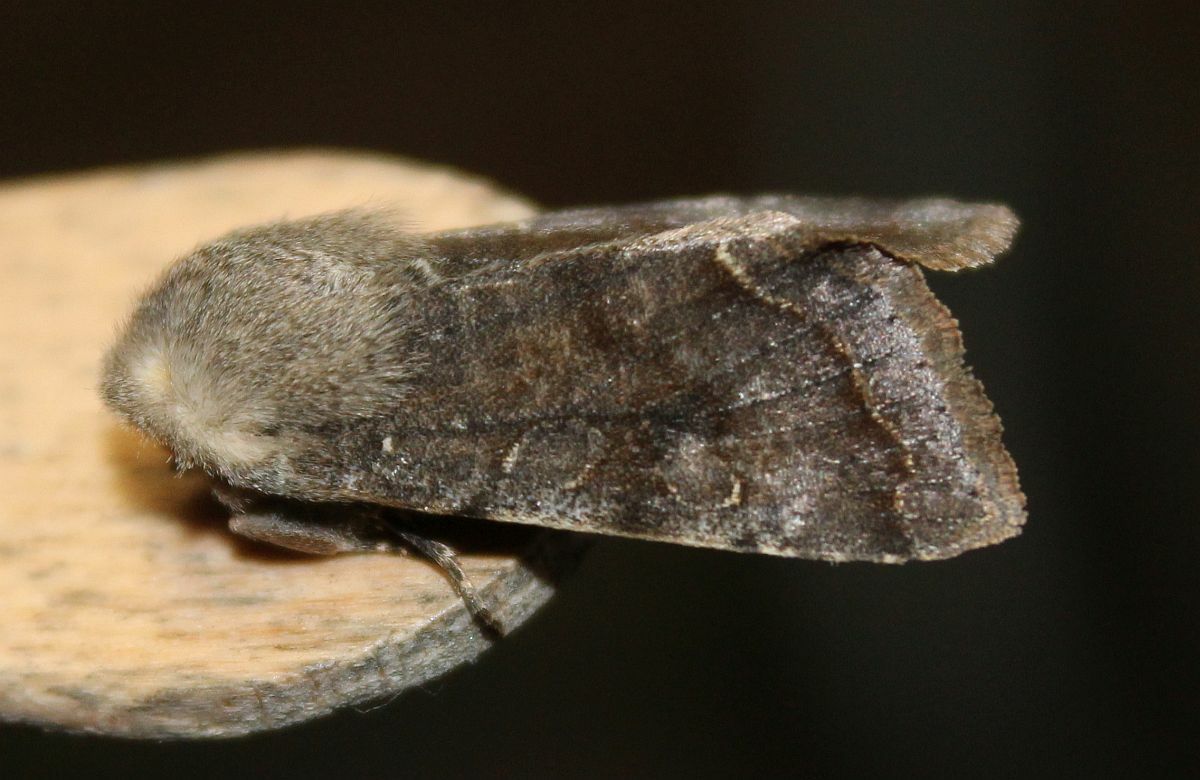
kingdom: Animalia
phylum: Arthropoda
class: Insecta
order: Lepidoptera
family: Noctuidae
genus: Orthosia
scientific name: Orthosia incerta
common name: Clouded drab
